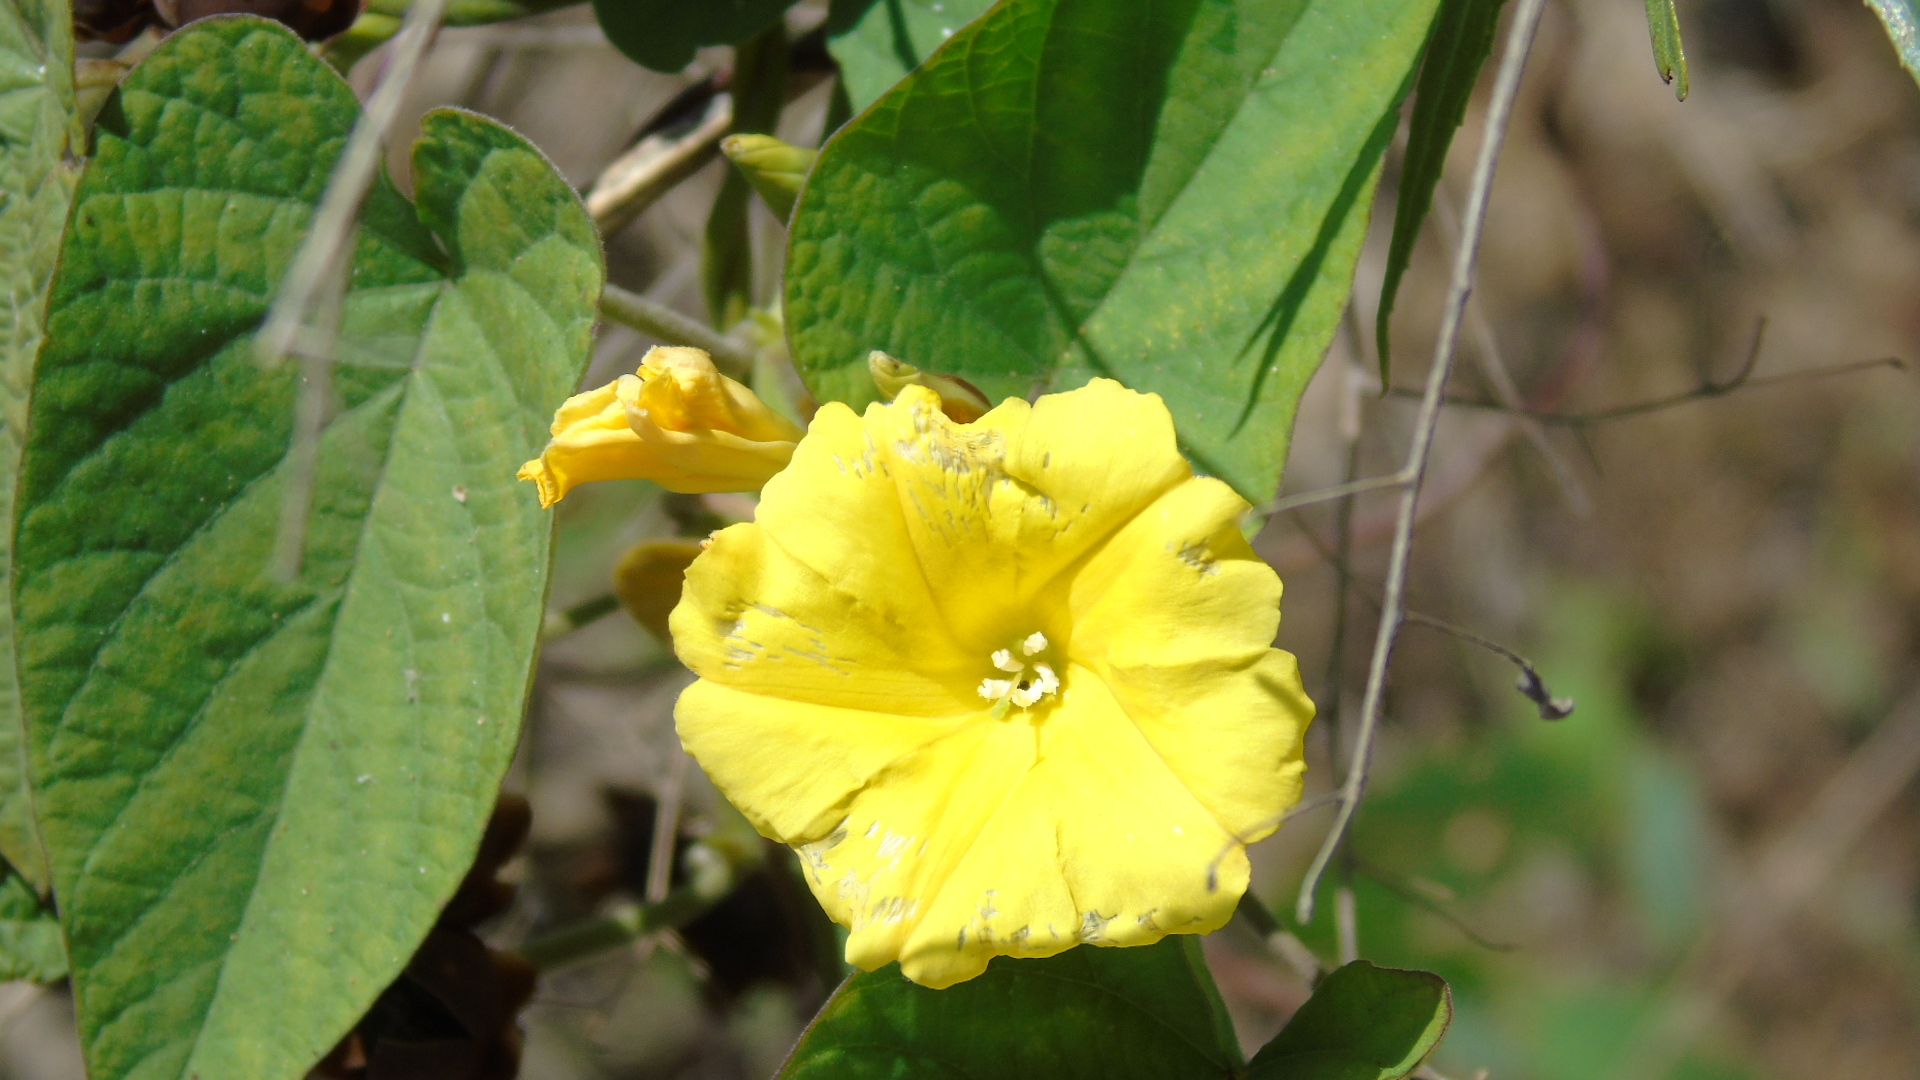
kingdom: Plantae
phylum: Tracheophyta
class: Magnoliopsida
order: Solanales
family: Convolvulaceae
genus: Camonea
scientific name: Camonea umbellata
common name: Hogvine
